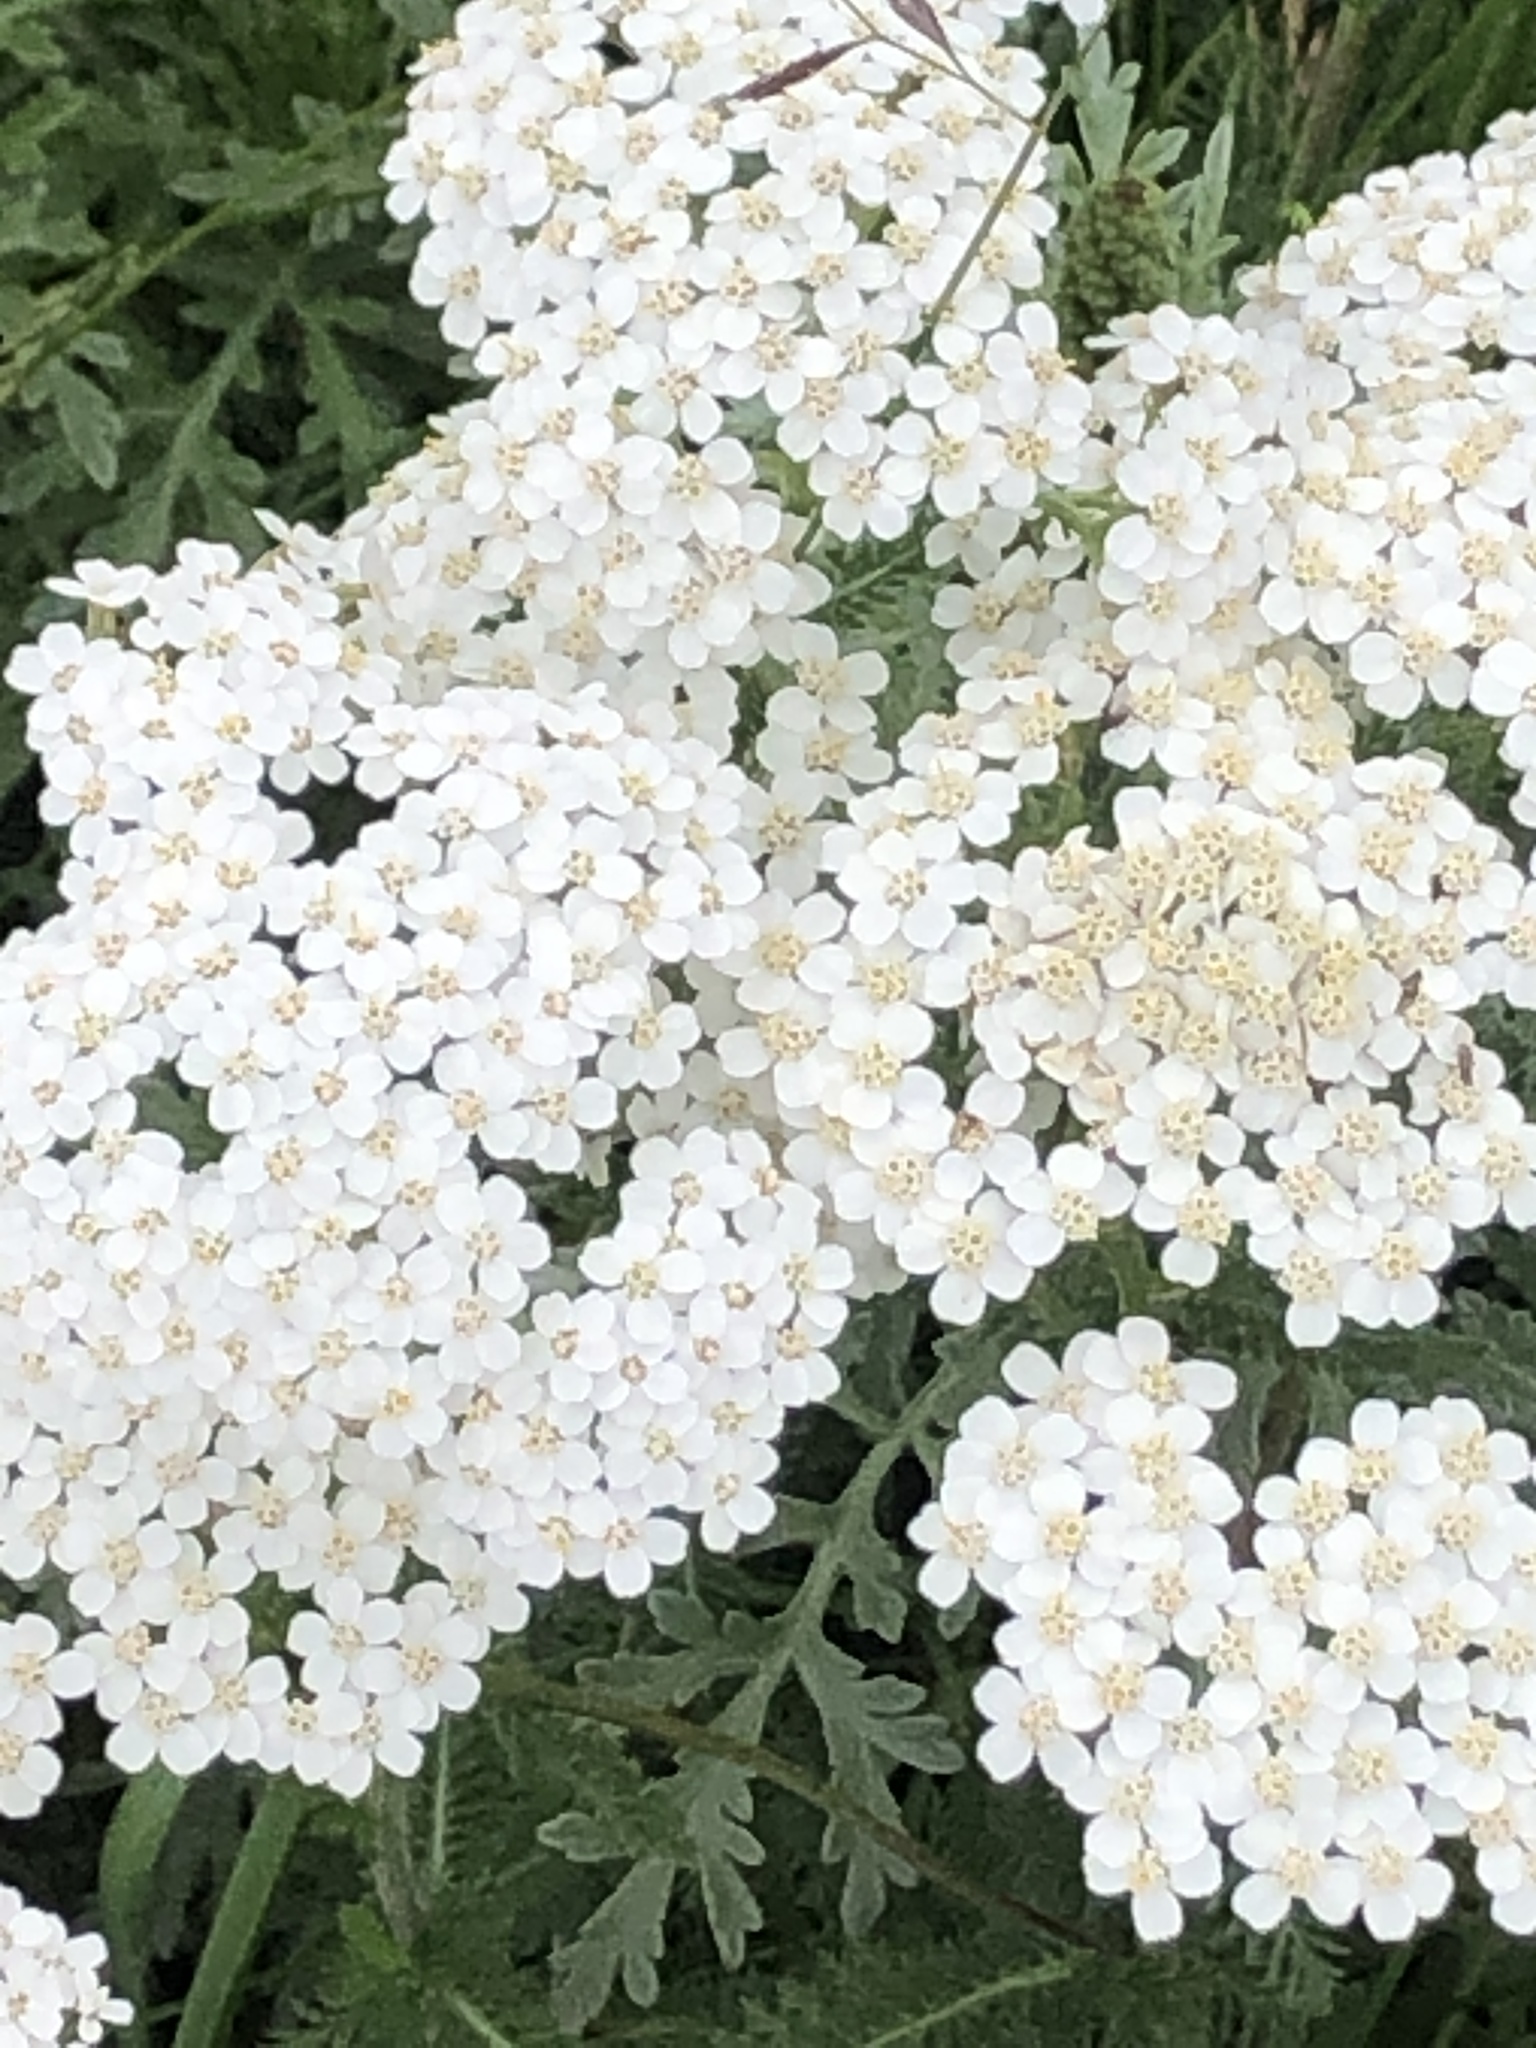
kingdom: Plantae
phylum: Tracheophyta
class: Magnoliopsida
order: Asterales
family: Asteraceae
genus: Achillea
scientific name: Achillea millefolium
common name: Yarrow
